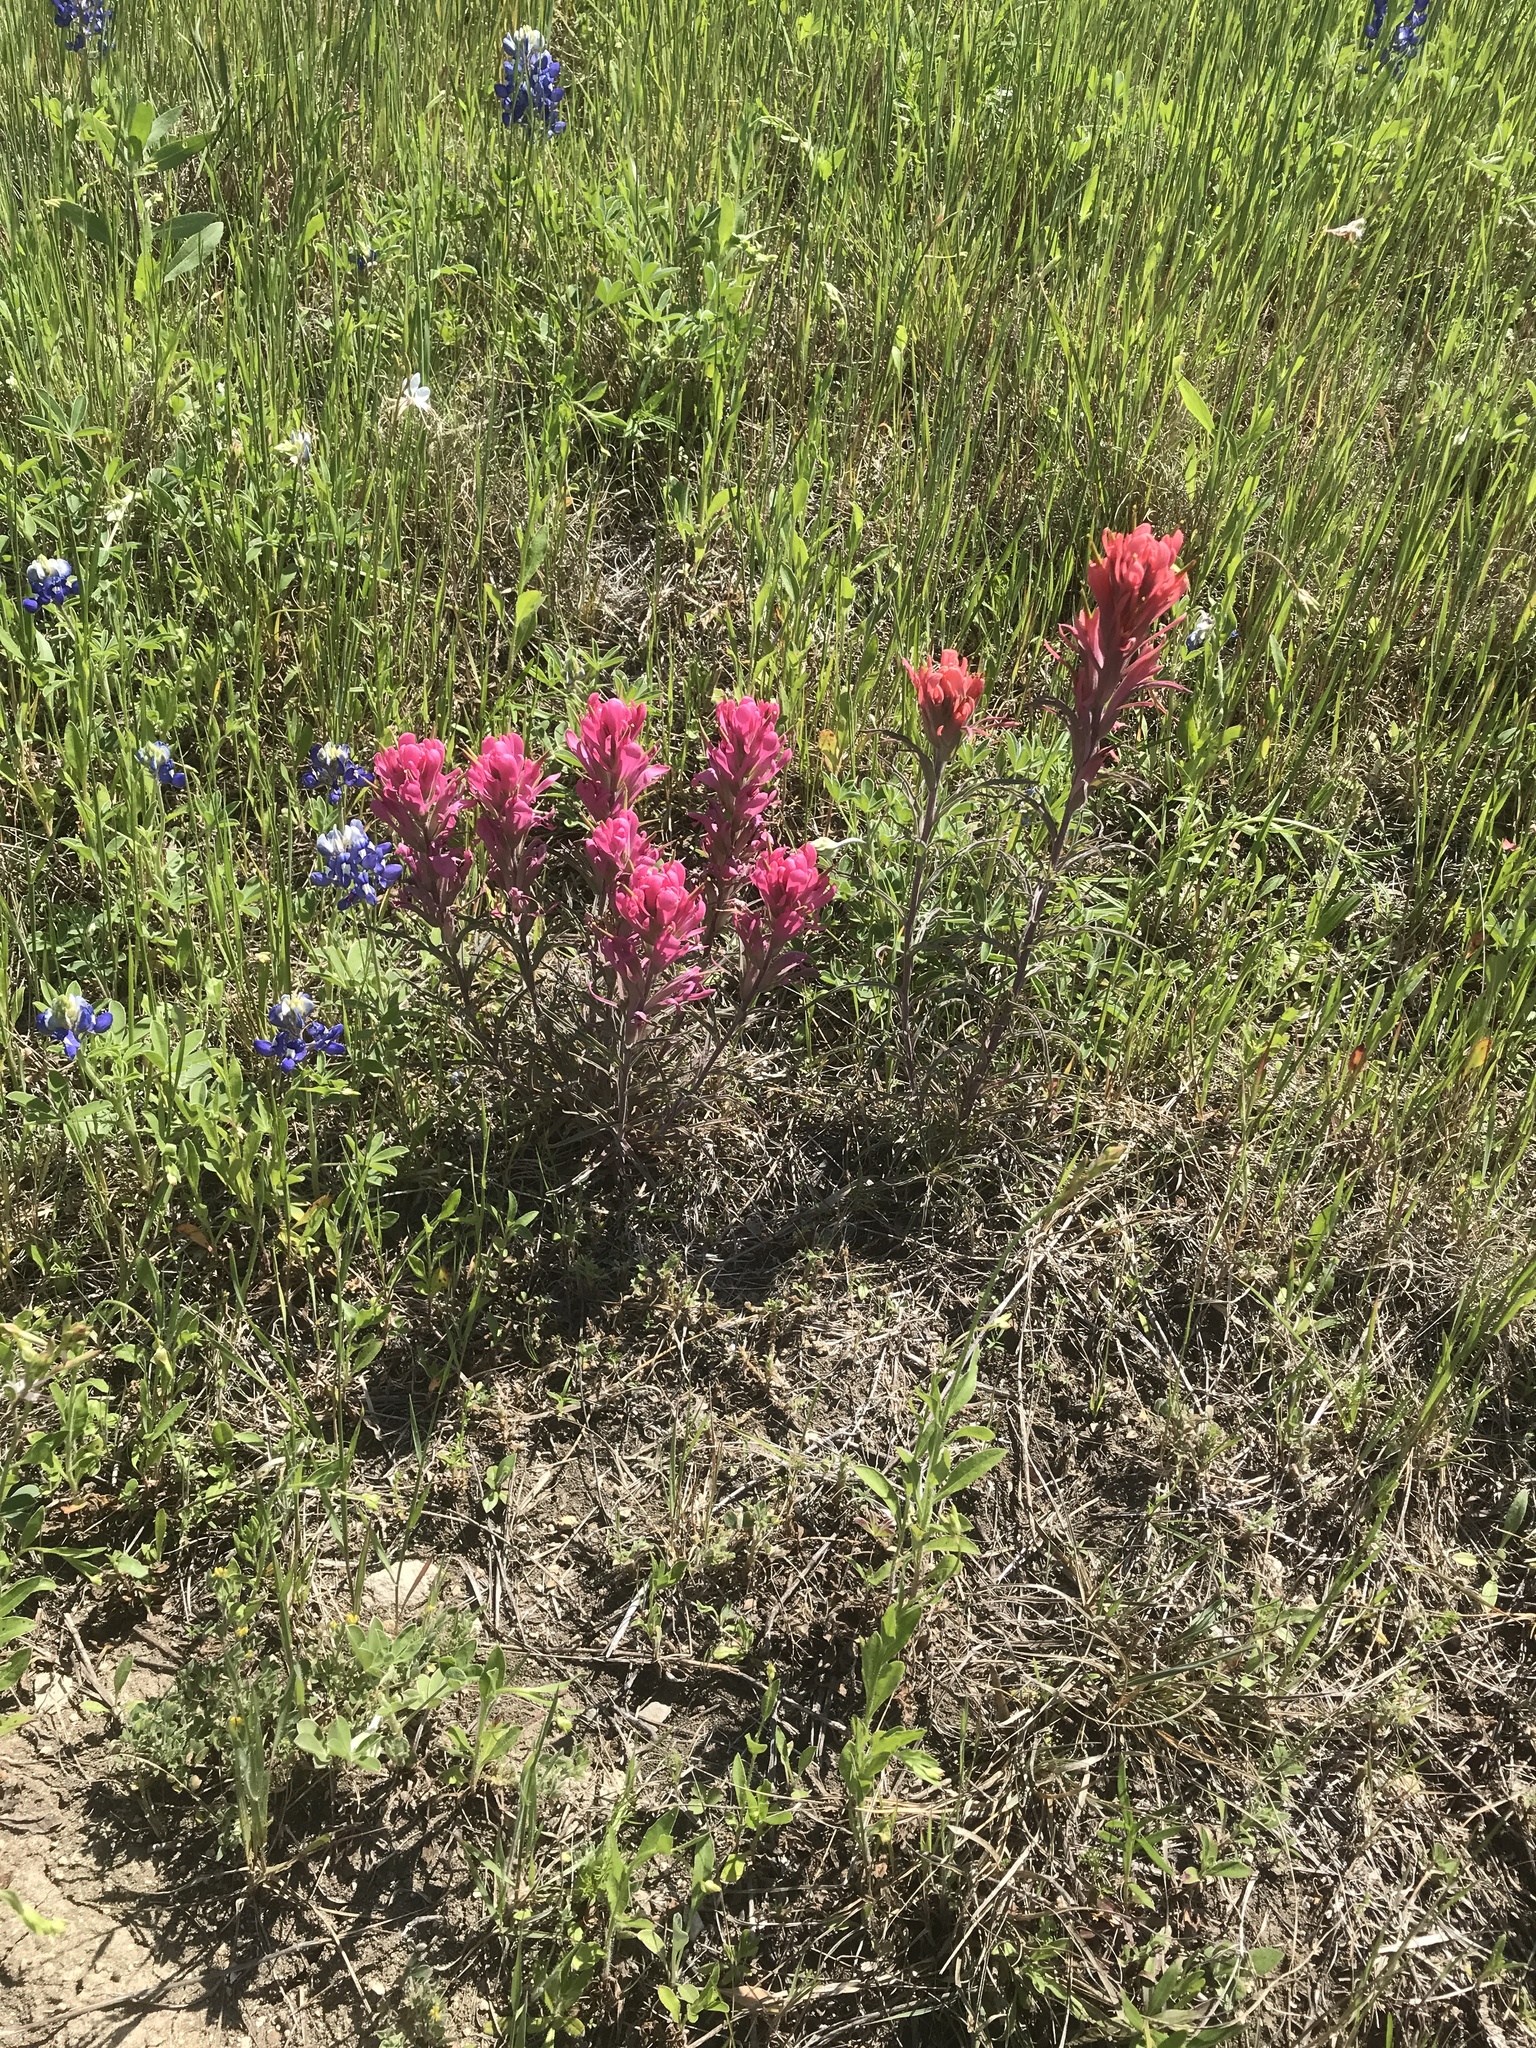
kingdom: Plantae
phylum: Tracheophyta
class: Magnoliopsida
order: Lamiales
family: Orobanchaceae
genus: Castilleja
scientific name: Castilleja purpurea
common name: Plains paintbrush
